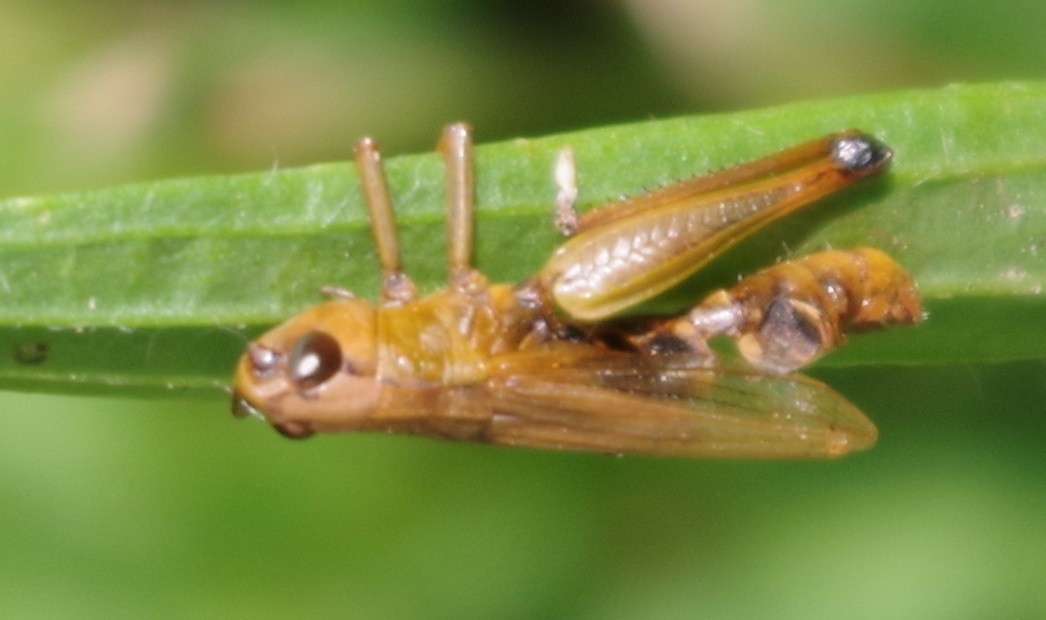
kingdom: Animalia
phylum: Arthropoda
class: Insecta
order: Orthoptera
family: Acrididae
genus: Pseudochorthippus
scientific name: Pseudochorthippus parallelus
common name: Meadow grasshopper
